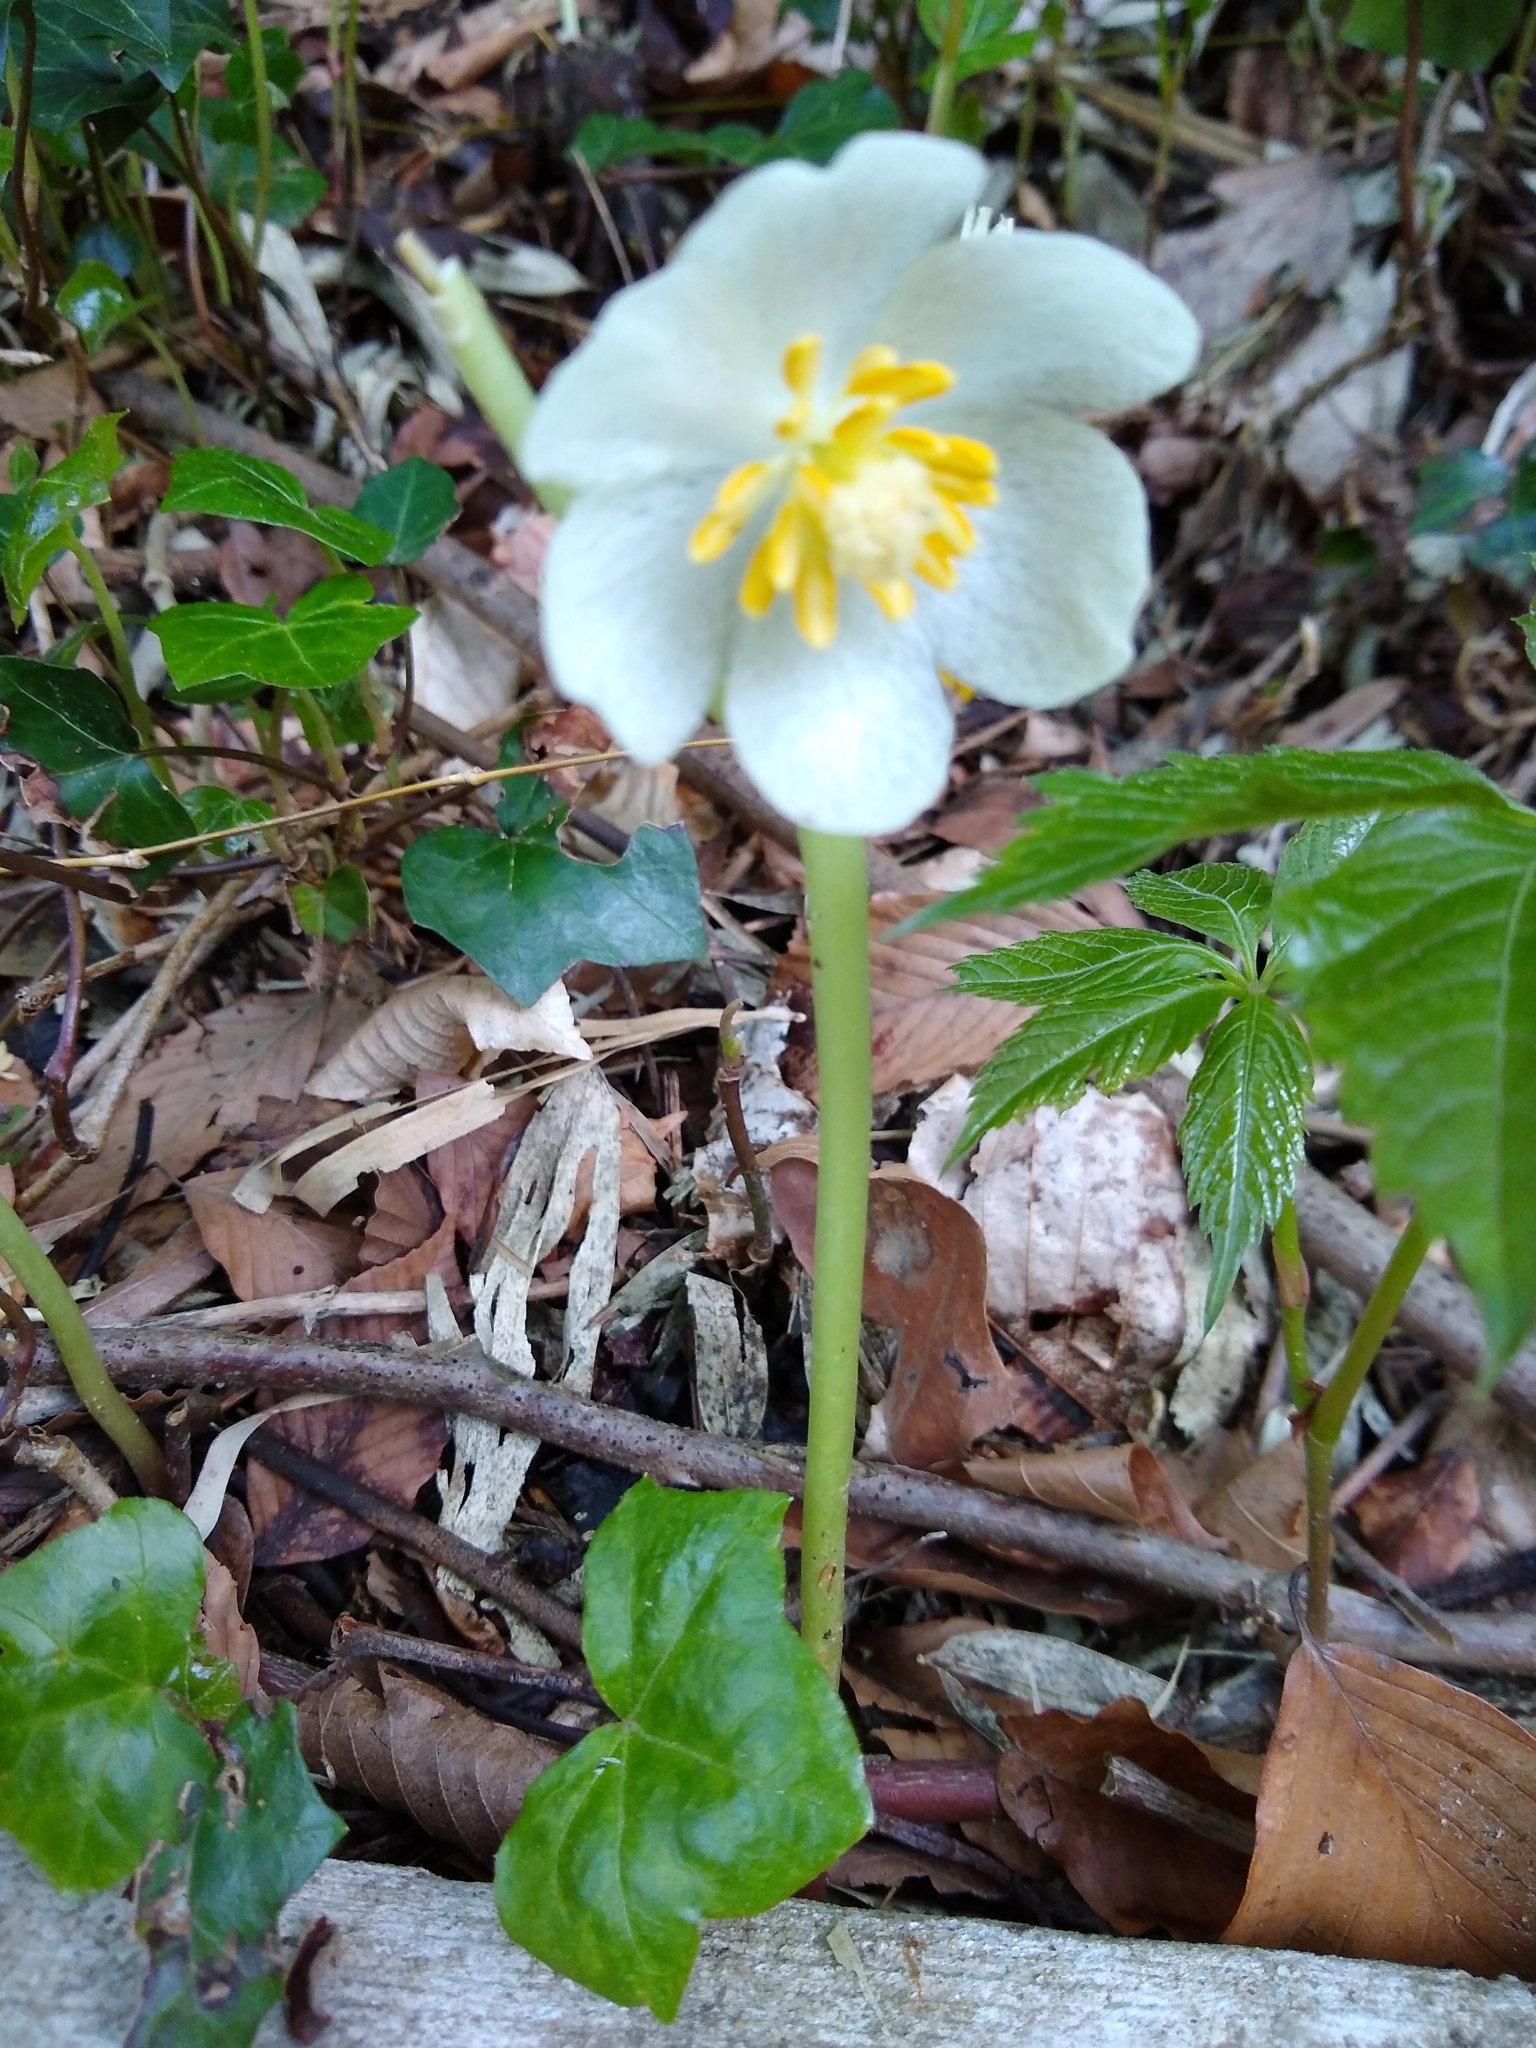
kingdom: Plantae
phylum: Tracheophyta
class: Magnoliopsida
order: Ranunculales
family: Berberidaceae
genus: Podophyllum
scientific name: Podophyllum peltatum
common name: Wild mandrake
